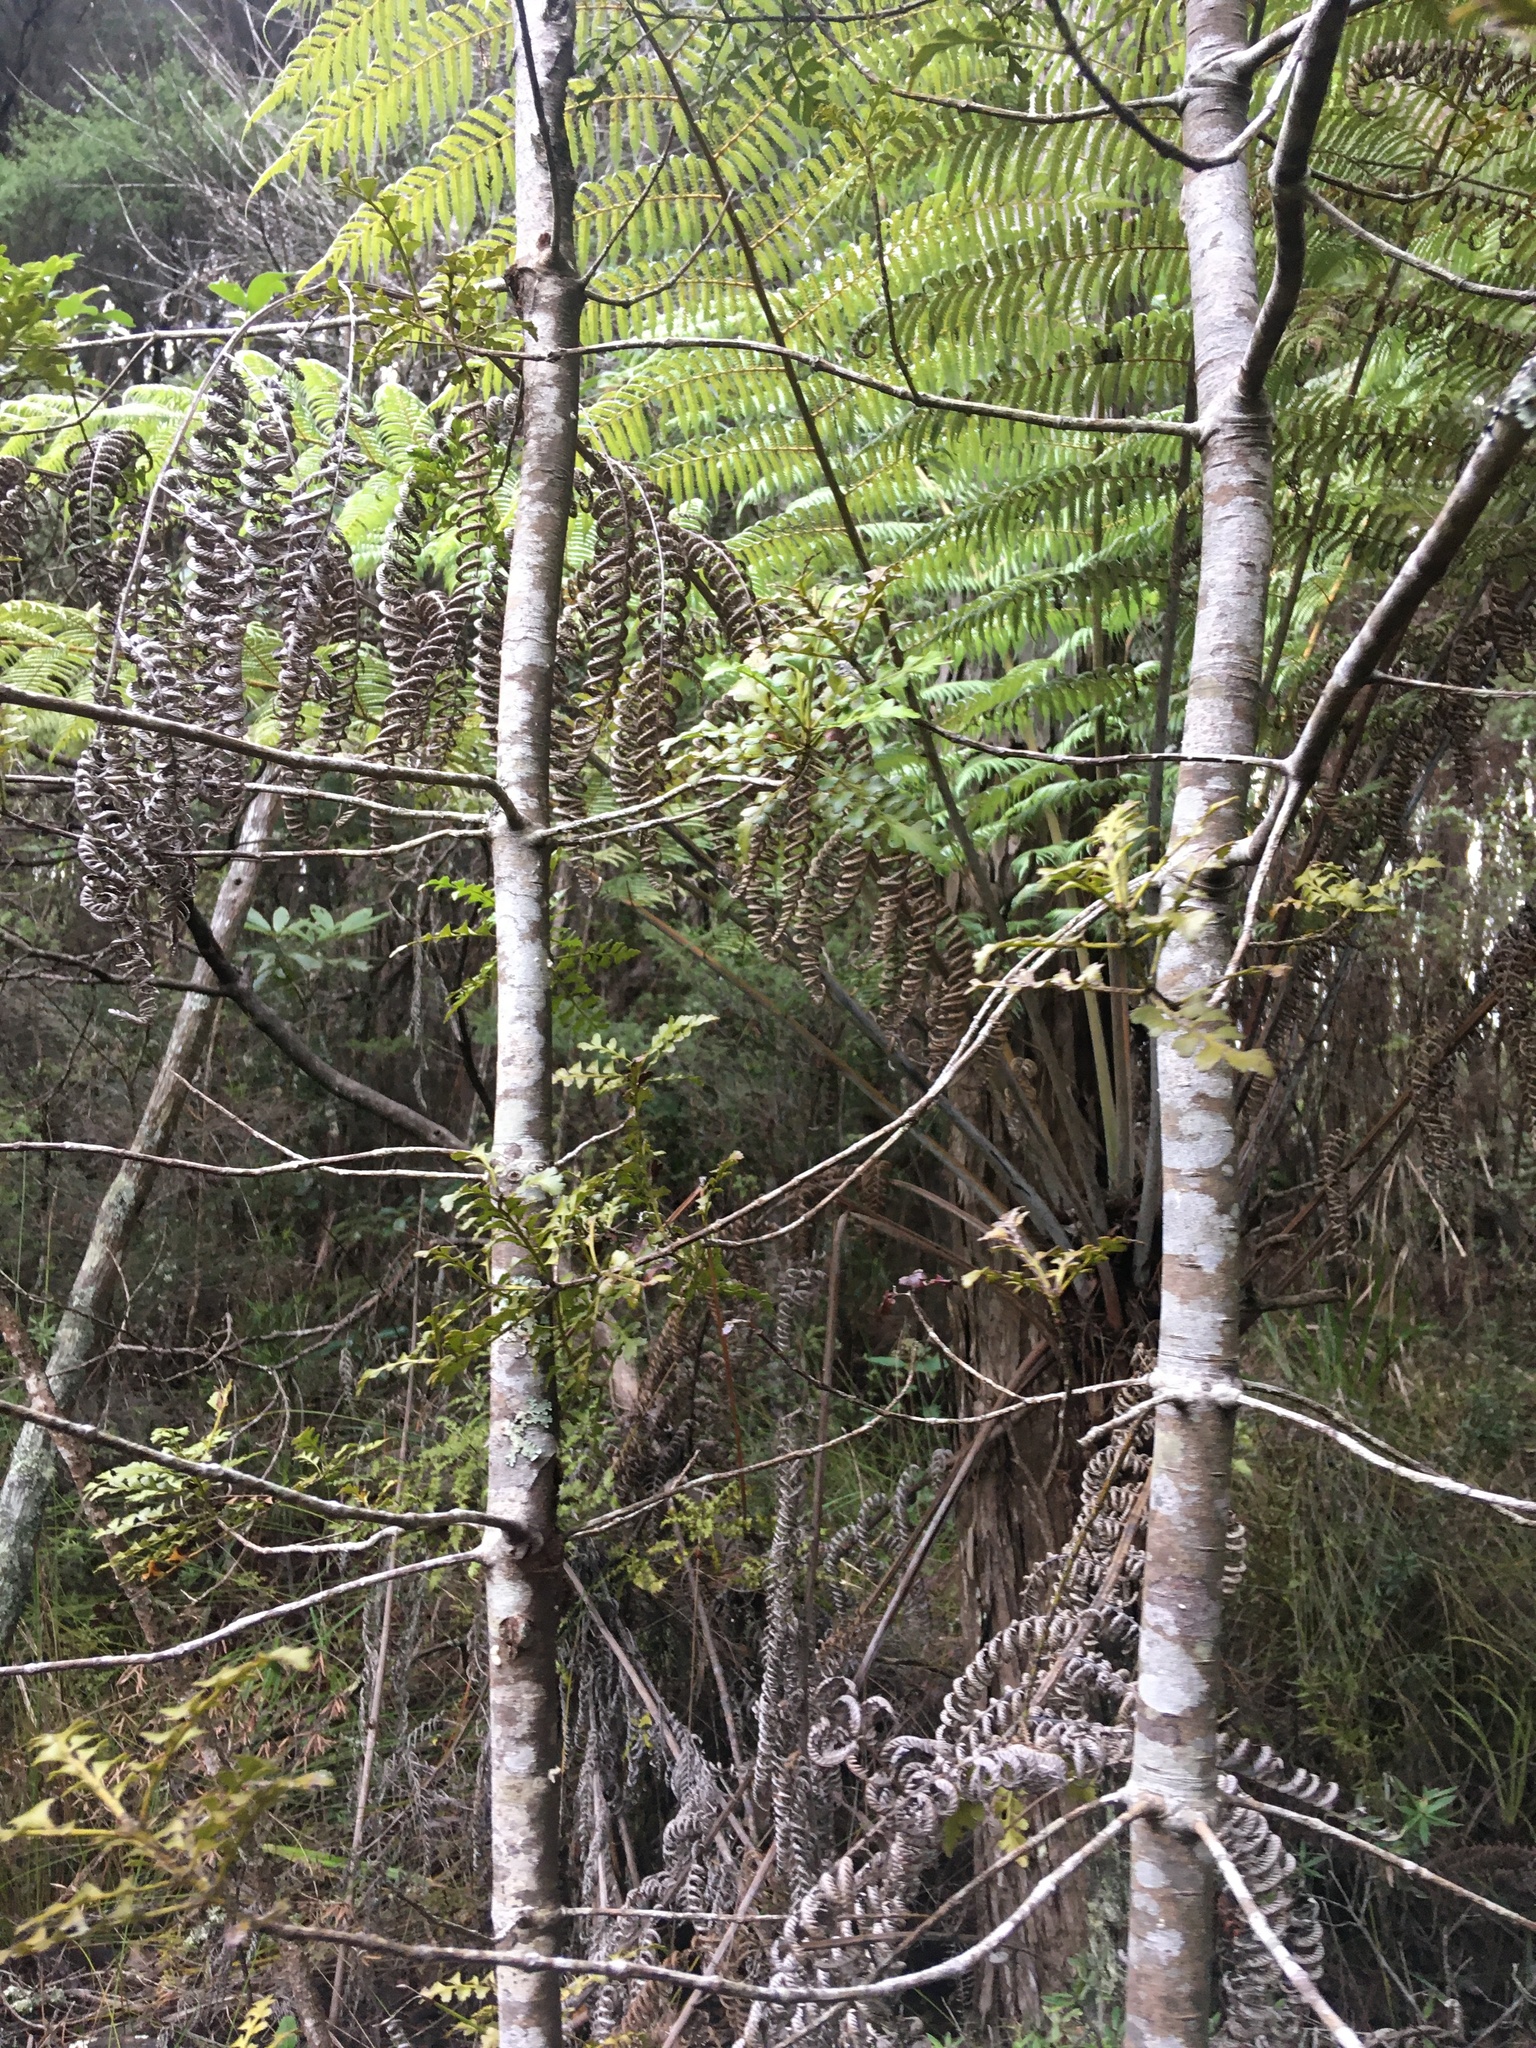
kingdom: Plantae
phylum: Tracheophyta
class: Pinopsida
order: Pinales
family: Phyllocladaceae
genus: Phyllocladus
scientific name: Phyllocladus trichomanoides
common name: Celery pine
